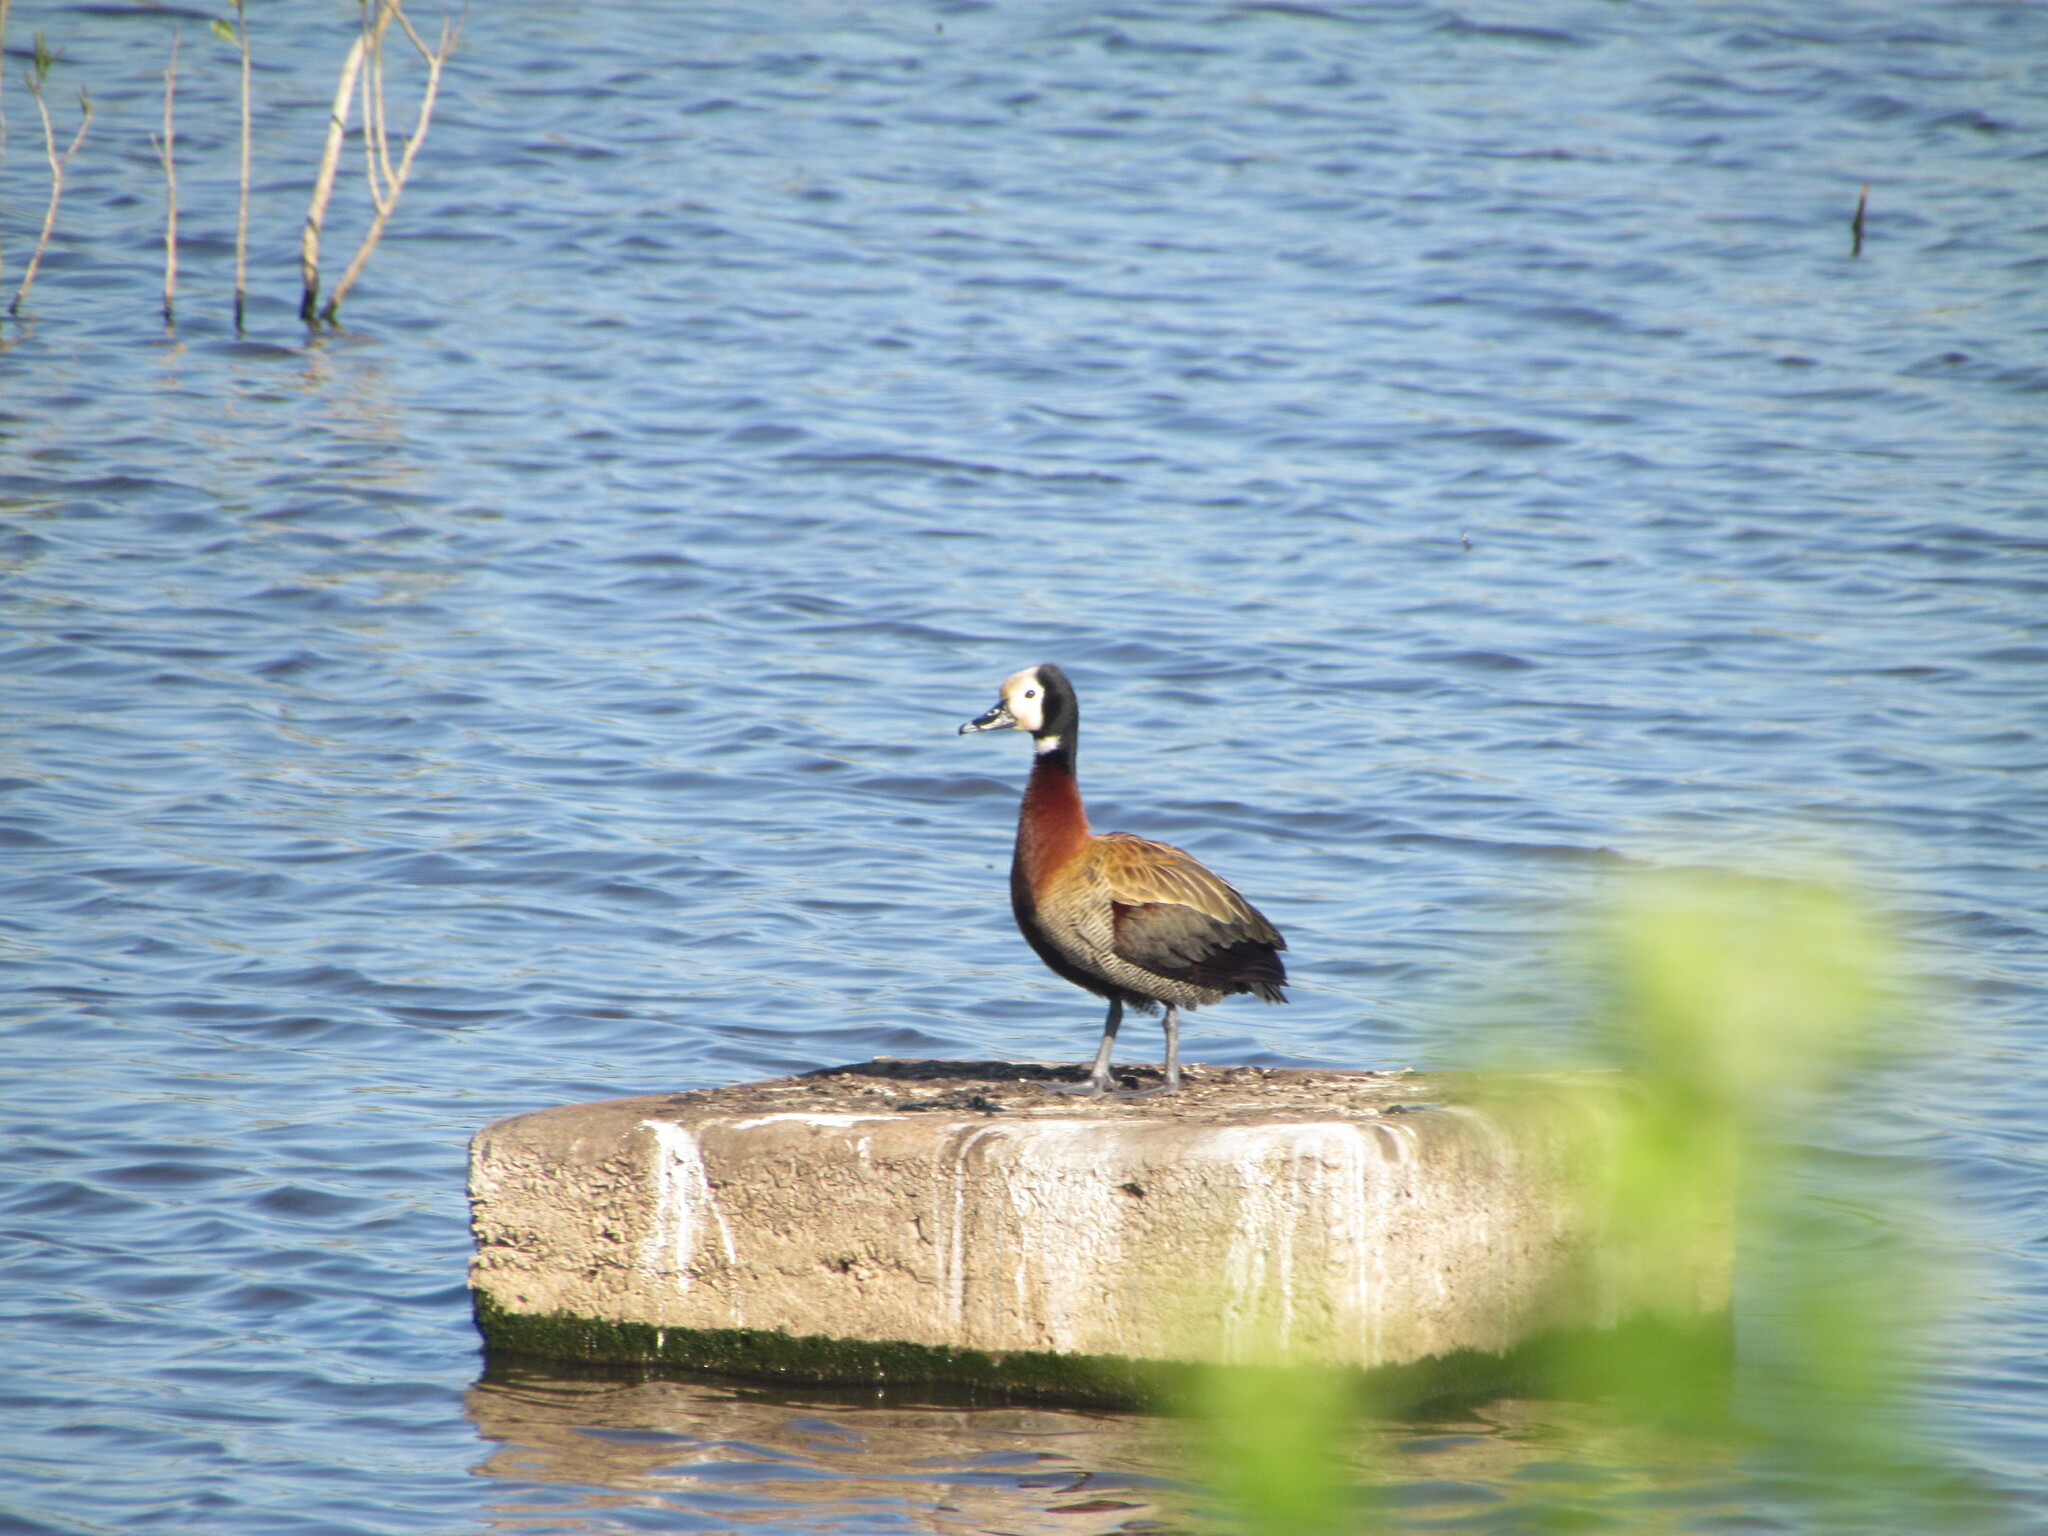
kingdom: Animalia
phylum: Chordata
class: Aves
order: Anseriformes
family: Anatidae
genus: Dendrocygna
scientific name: Dendrocygna viduata
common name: White-faced whistling duck
